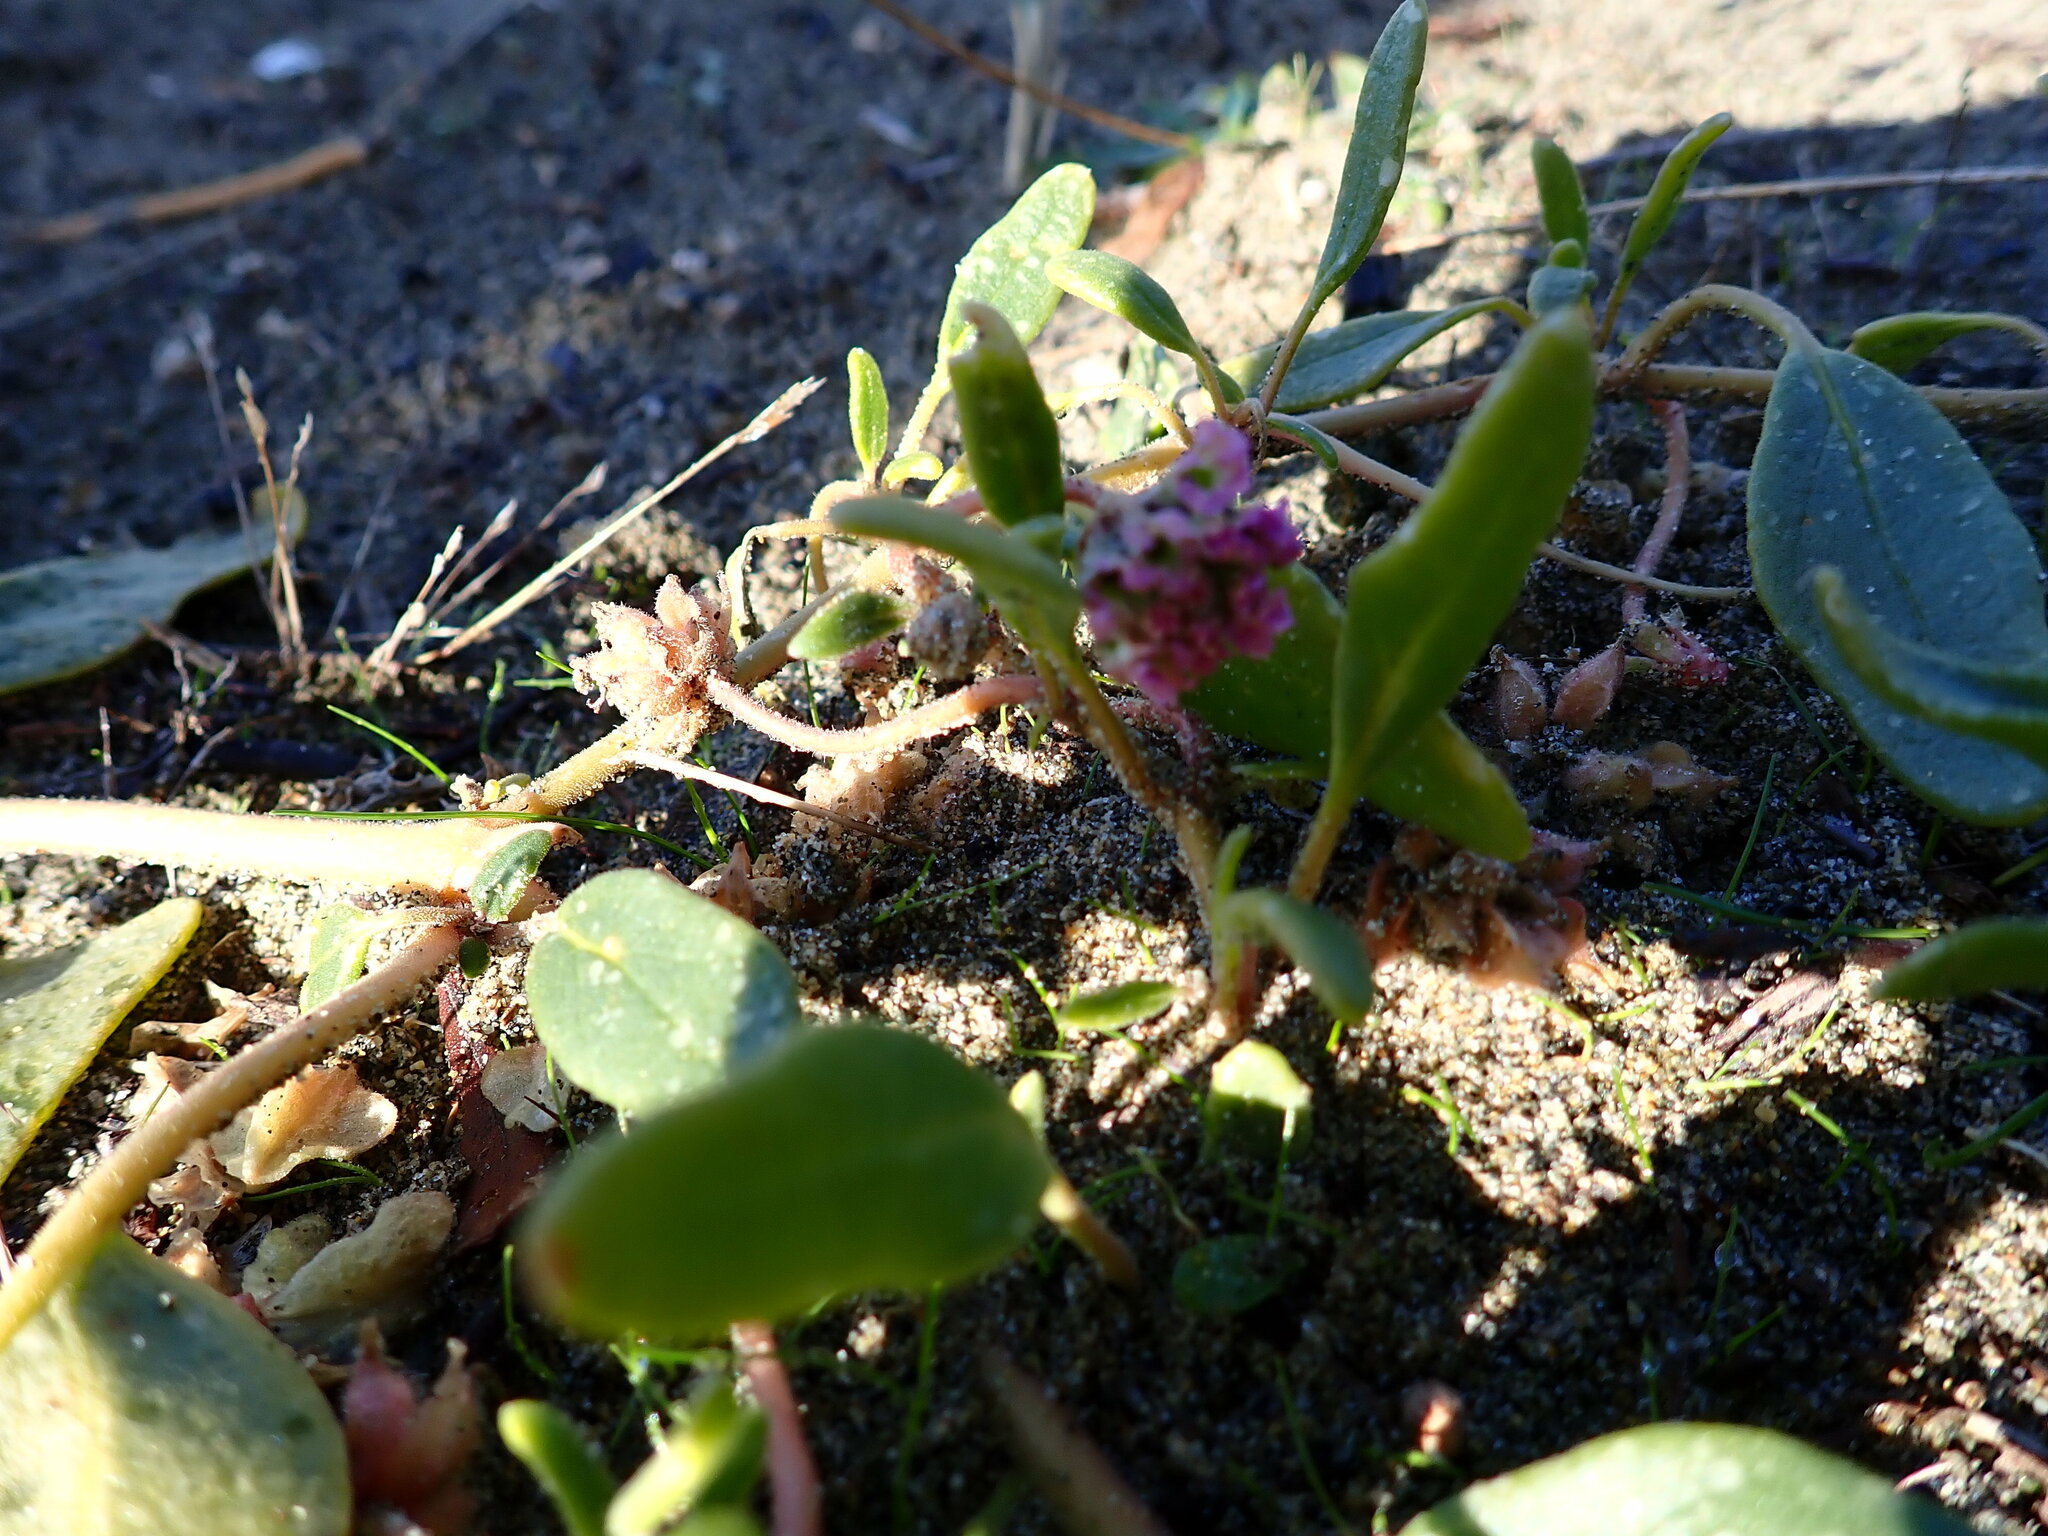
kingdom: Plantae
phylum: Tracheophyta
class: Magnoliopsida
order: Caryophyllales
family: Nyctaginaceae
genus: Abronia
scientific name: Abronia umbellata
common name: Sand-verbena
